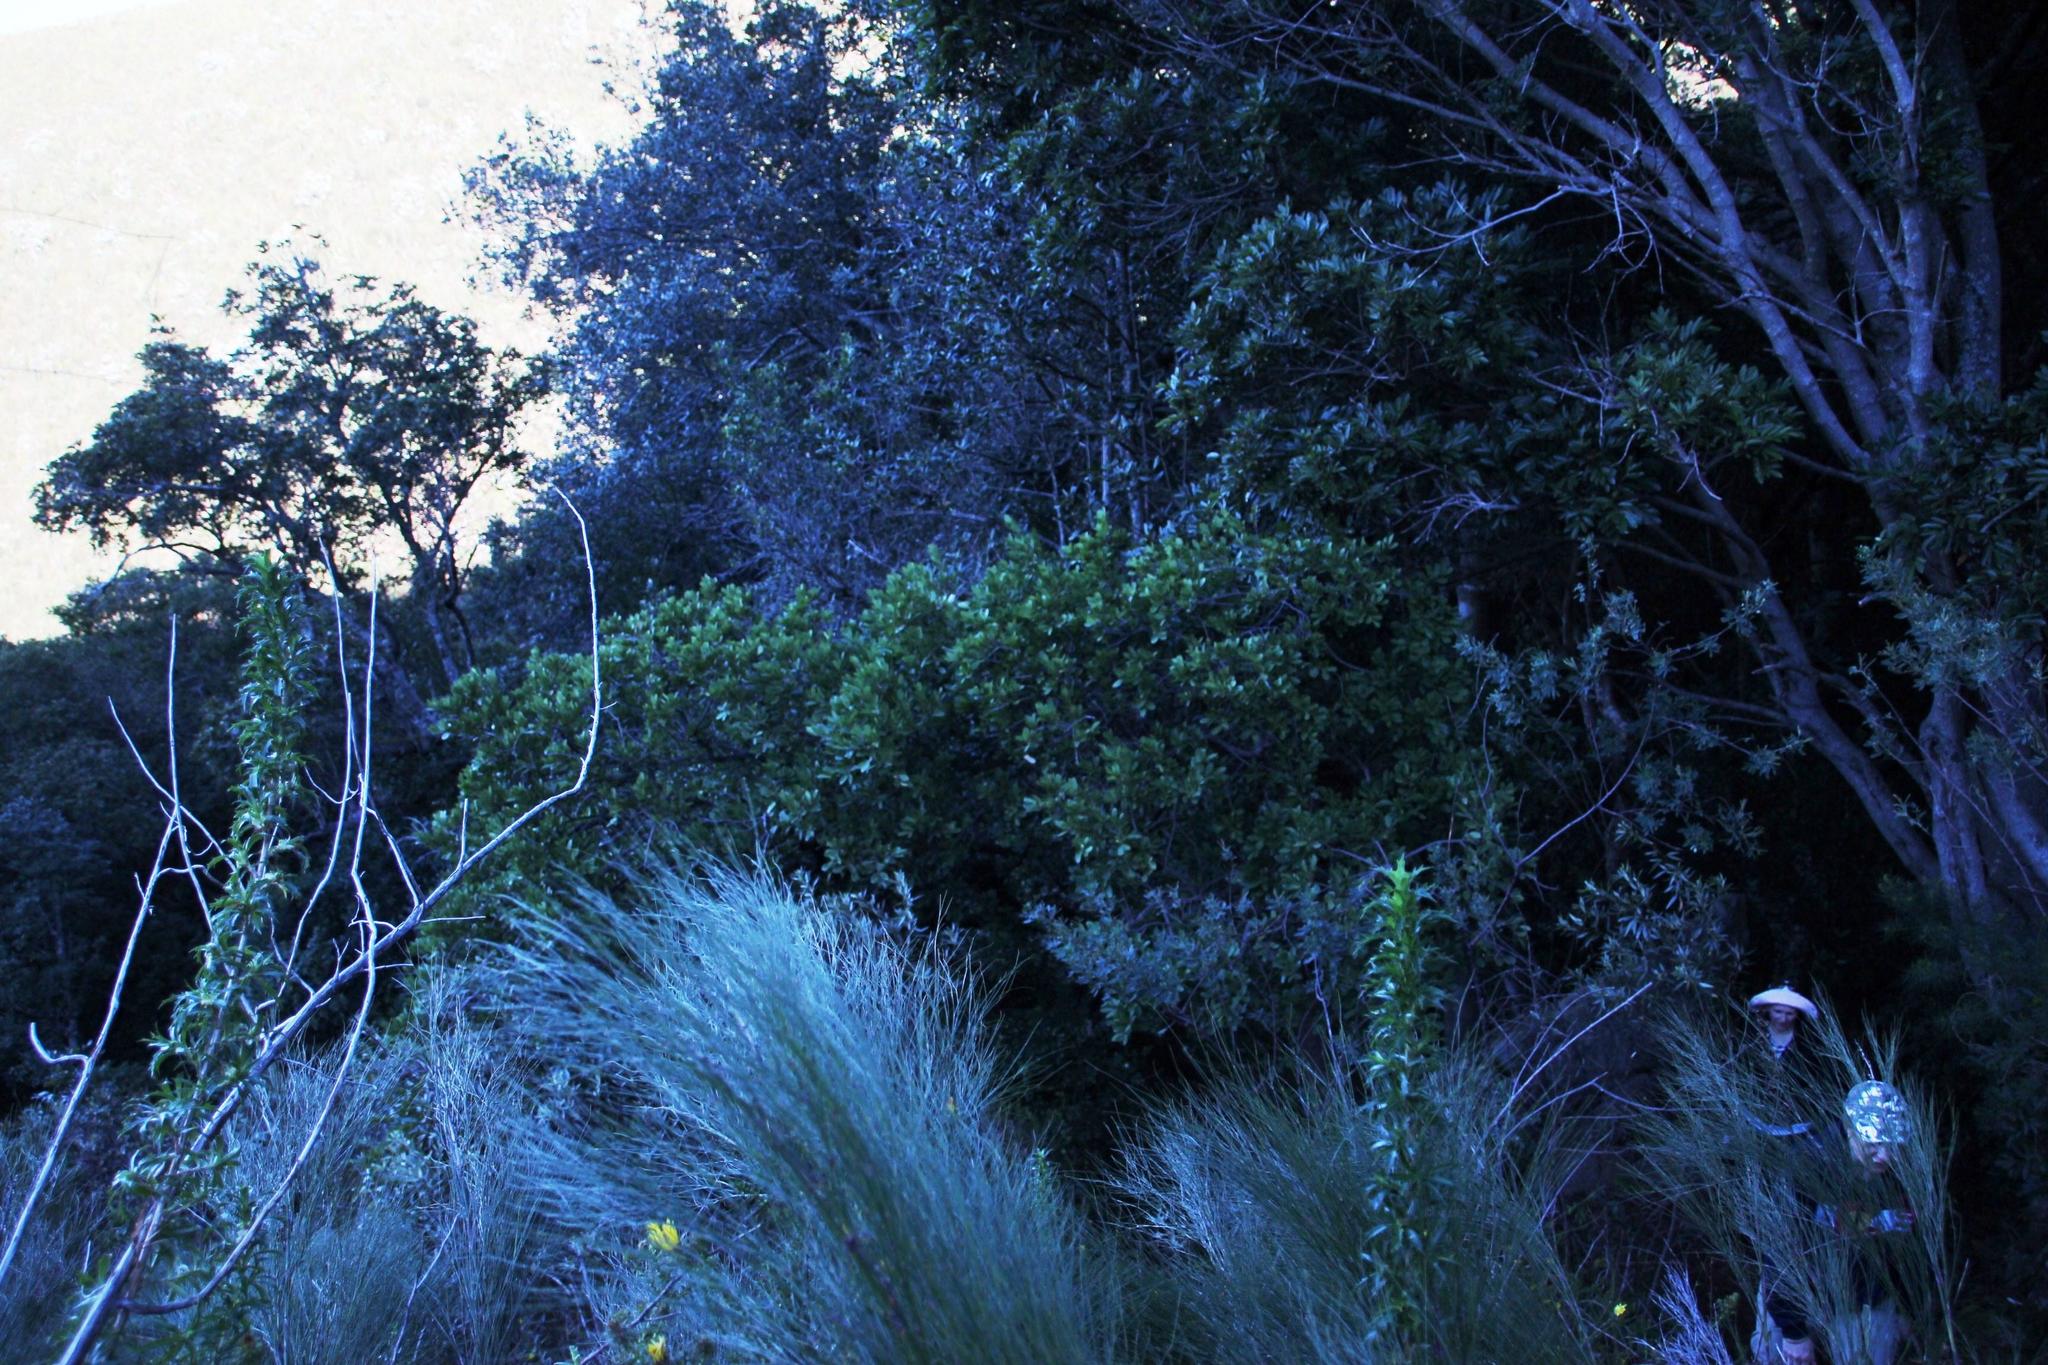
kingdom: Plantae
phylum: Tracheophyta
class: Magnoliopsida
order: Celastrales
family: Celastraceae
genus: Pterocelastrus
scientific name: Pterocelastrus tricuspidatus
